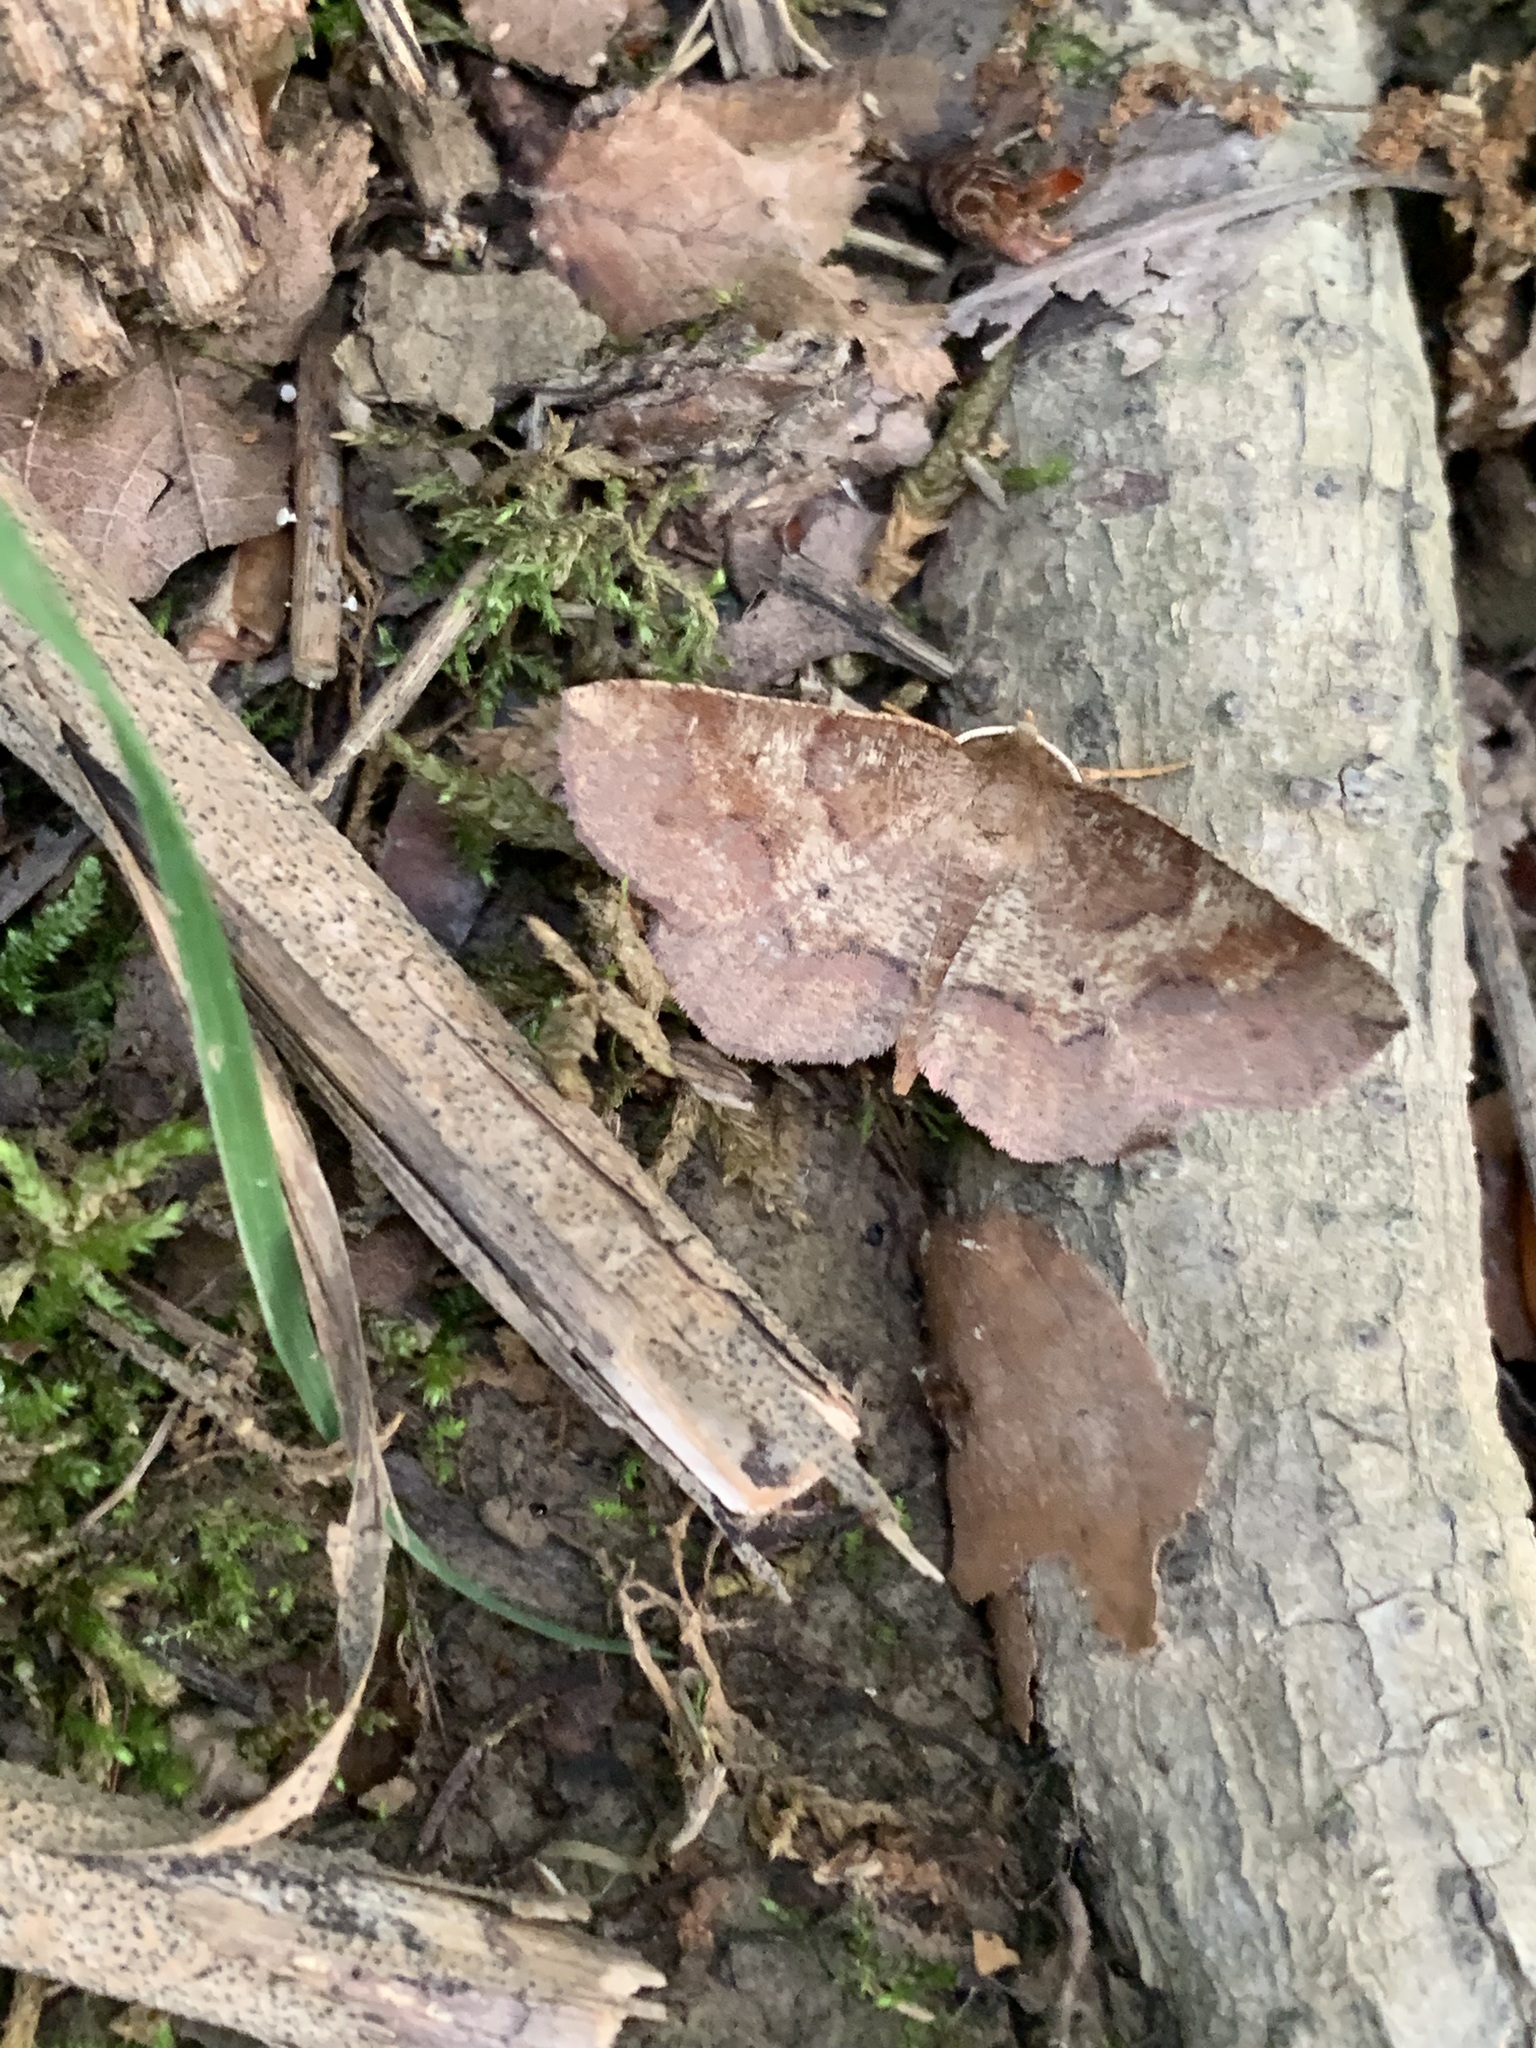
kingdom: Animalia
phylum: Arthropoda
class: Insecta
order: Lepidoptera
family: Geometridae
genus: Metarranthis
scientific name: Metarranthis angularia
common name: Angled metarranthis moth
